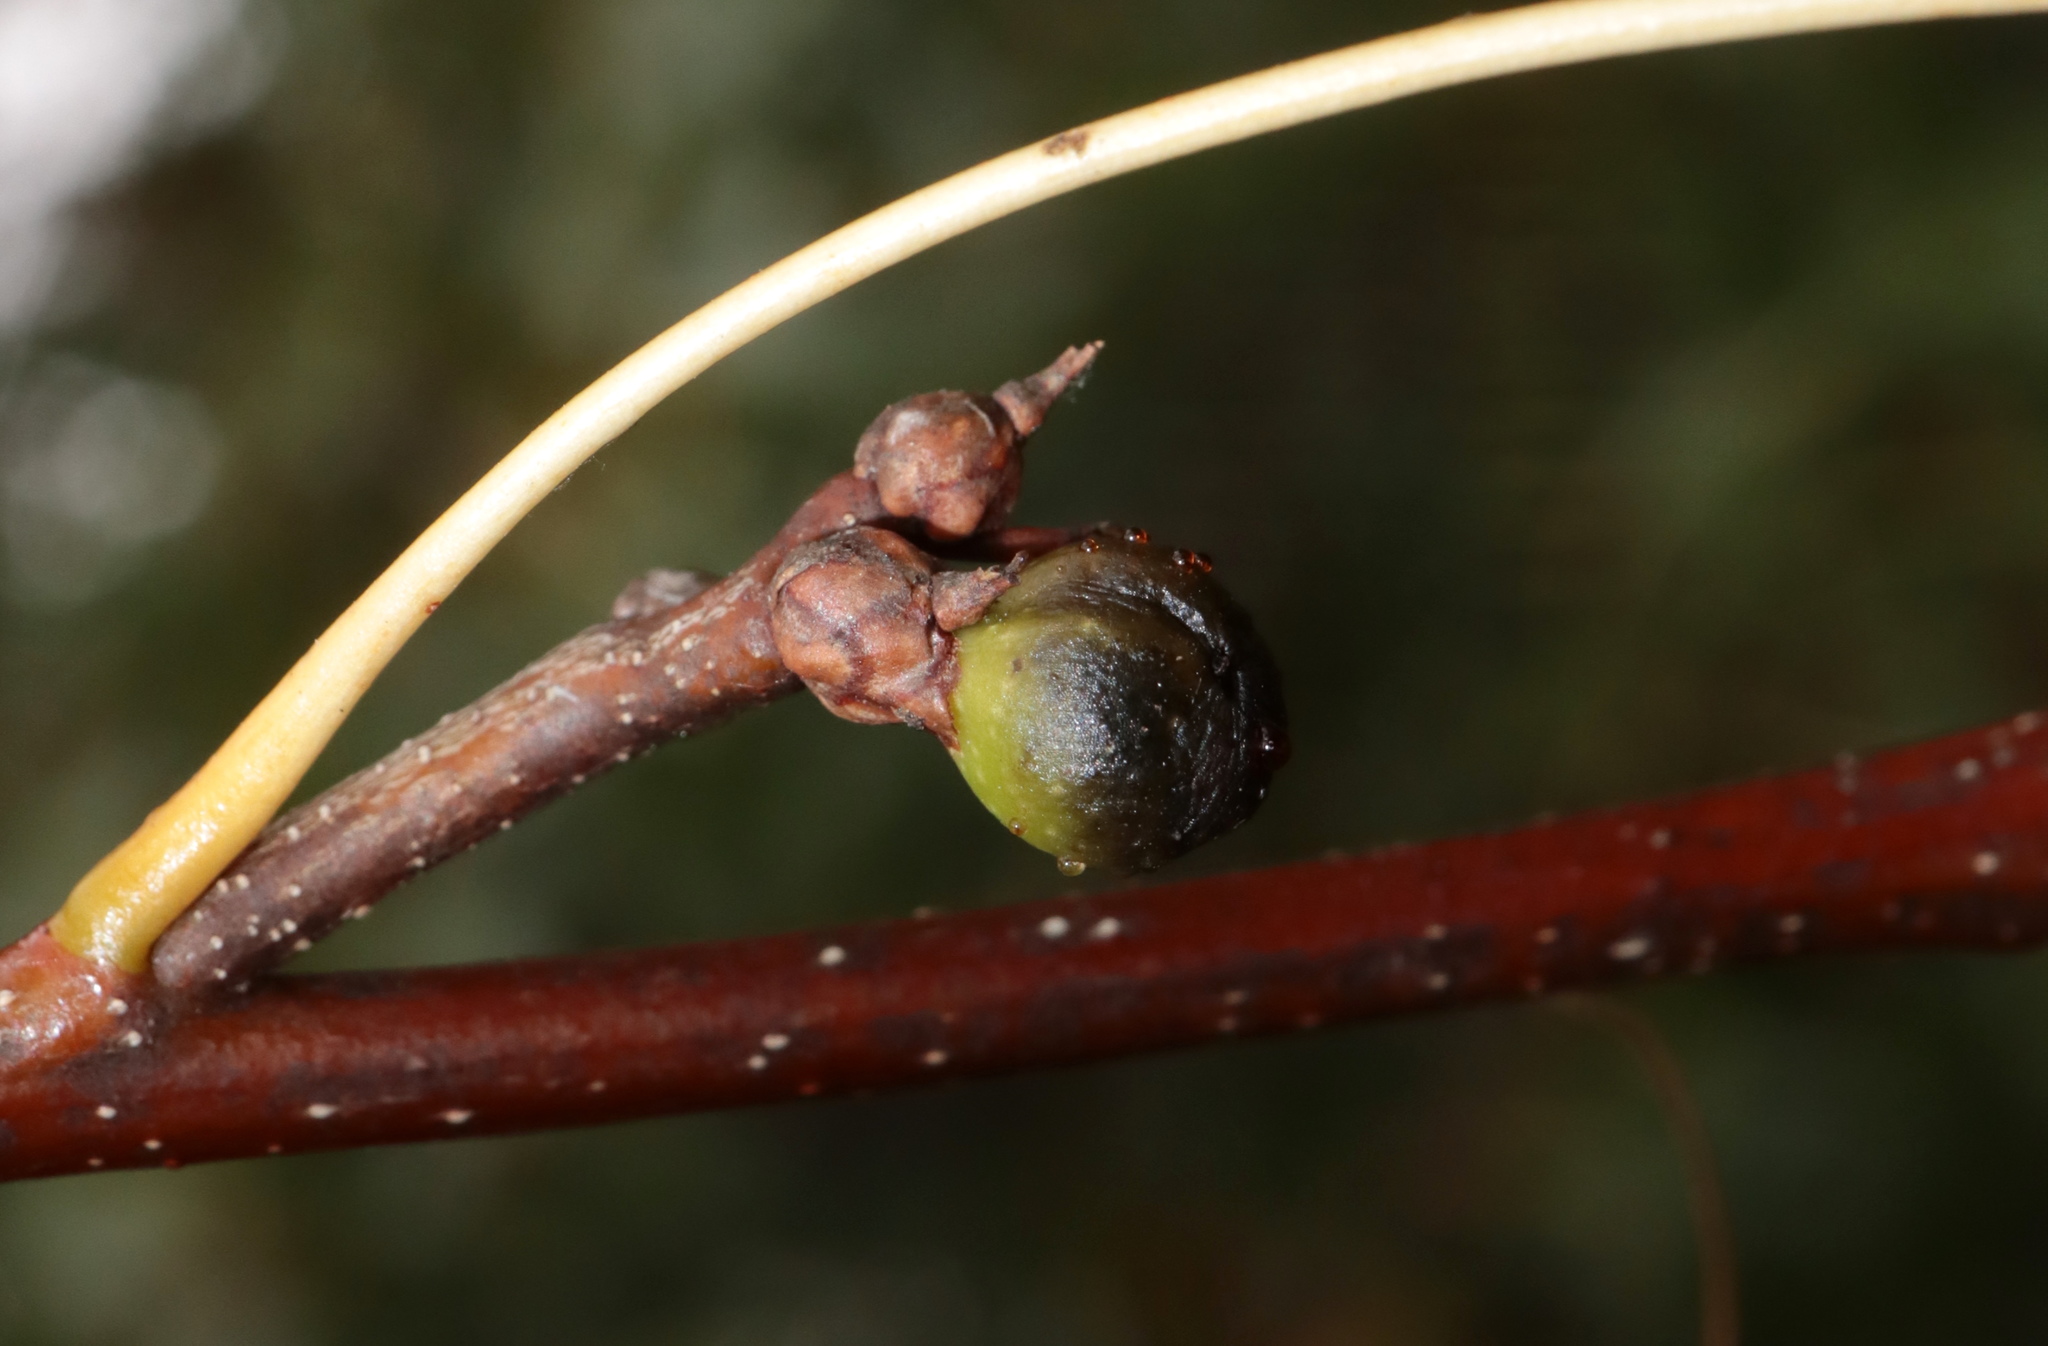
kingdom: Animalia
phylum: Arthropoda
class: Insecta
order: Hymenoptera
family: Cynipidae
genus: Callirhytis
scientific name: Callirhytis
